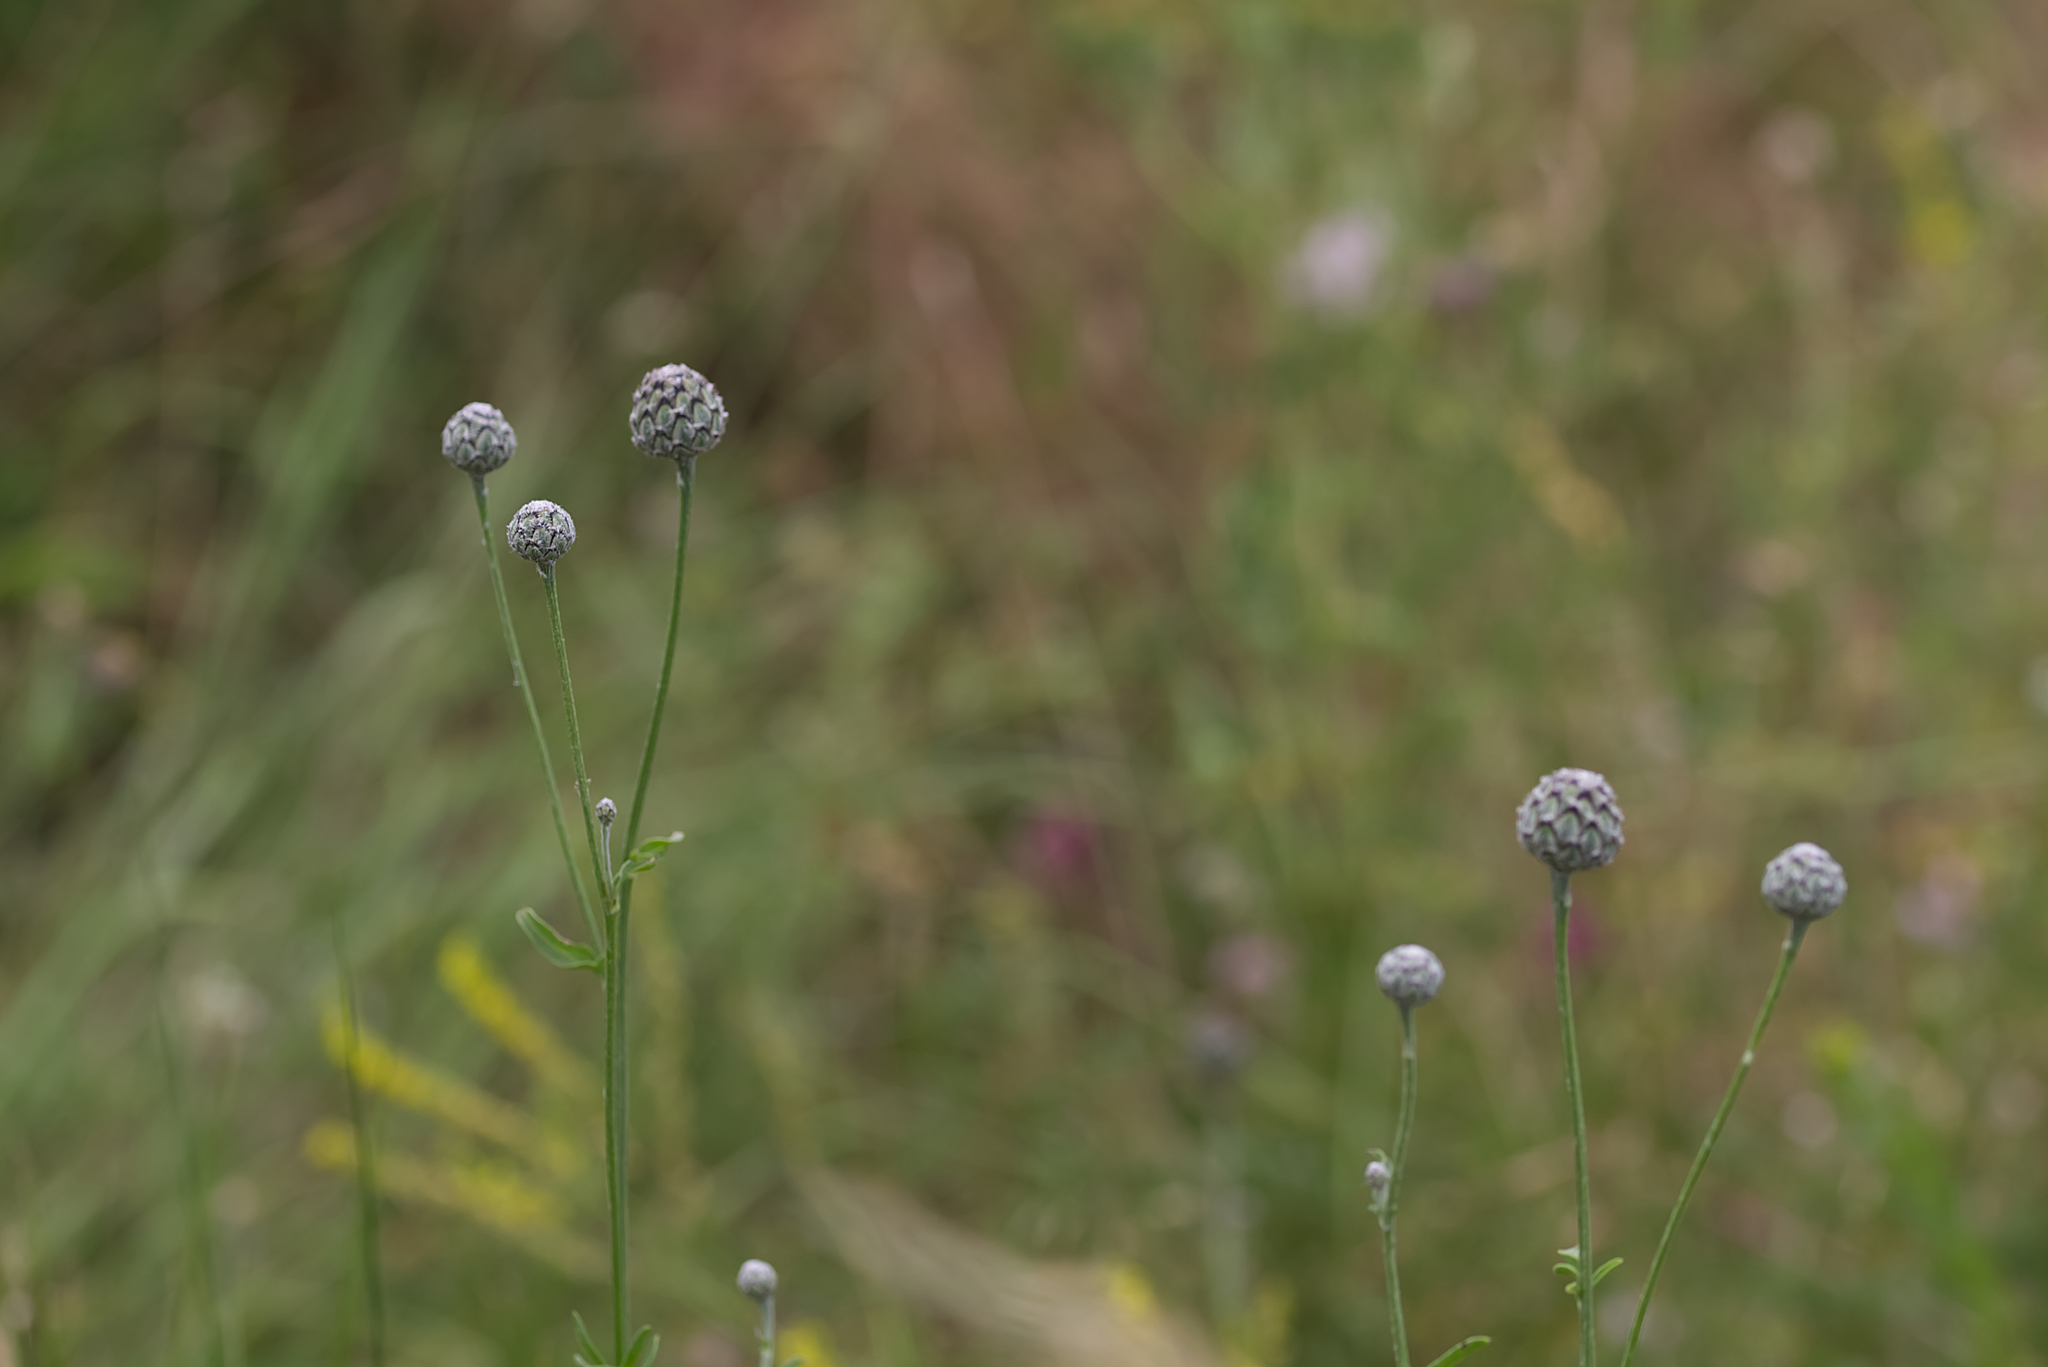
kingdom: Plantae
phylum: Tracheophyta
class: Magnoliopsida
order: Asterales
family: Asteraceae
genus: Centaurea
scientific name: Centaurea scabiosa
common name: Greater knapweed
